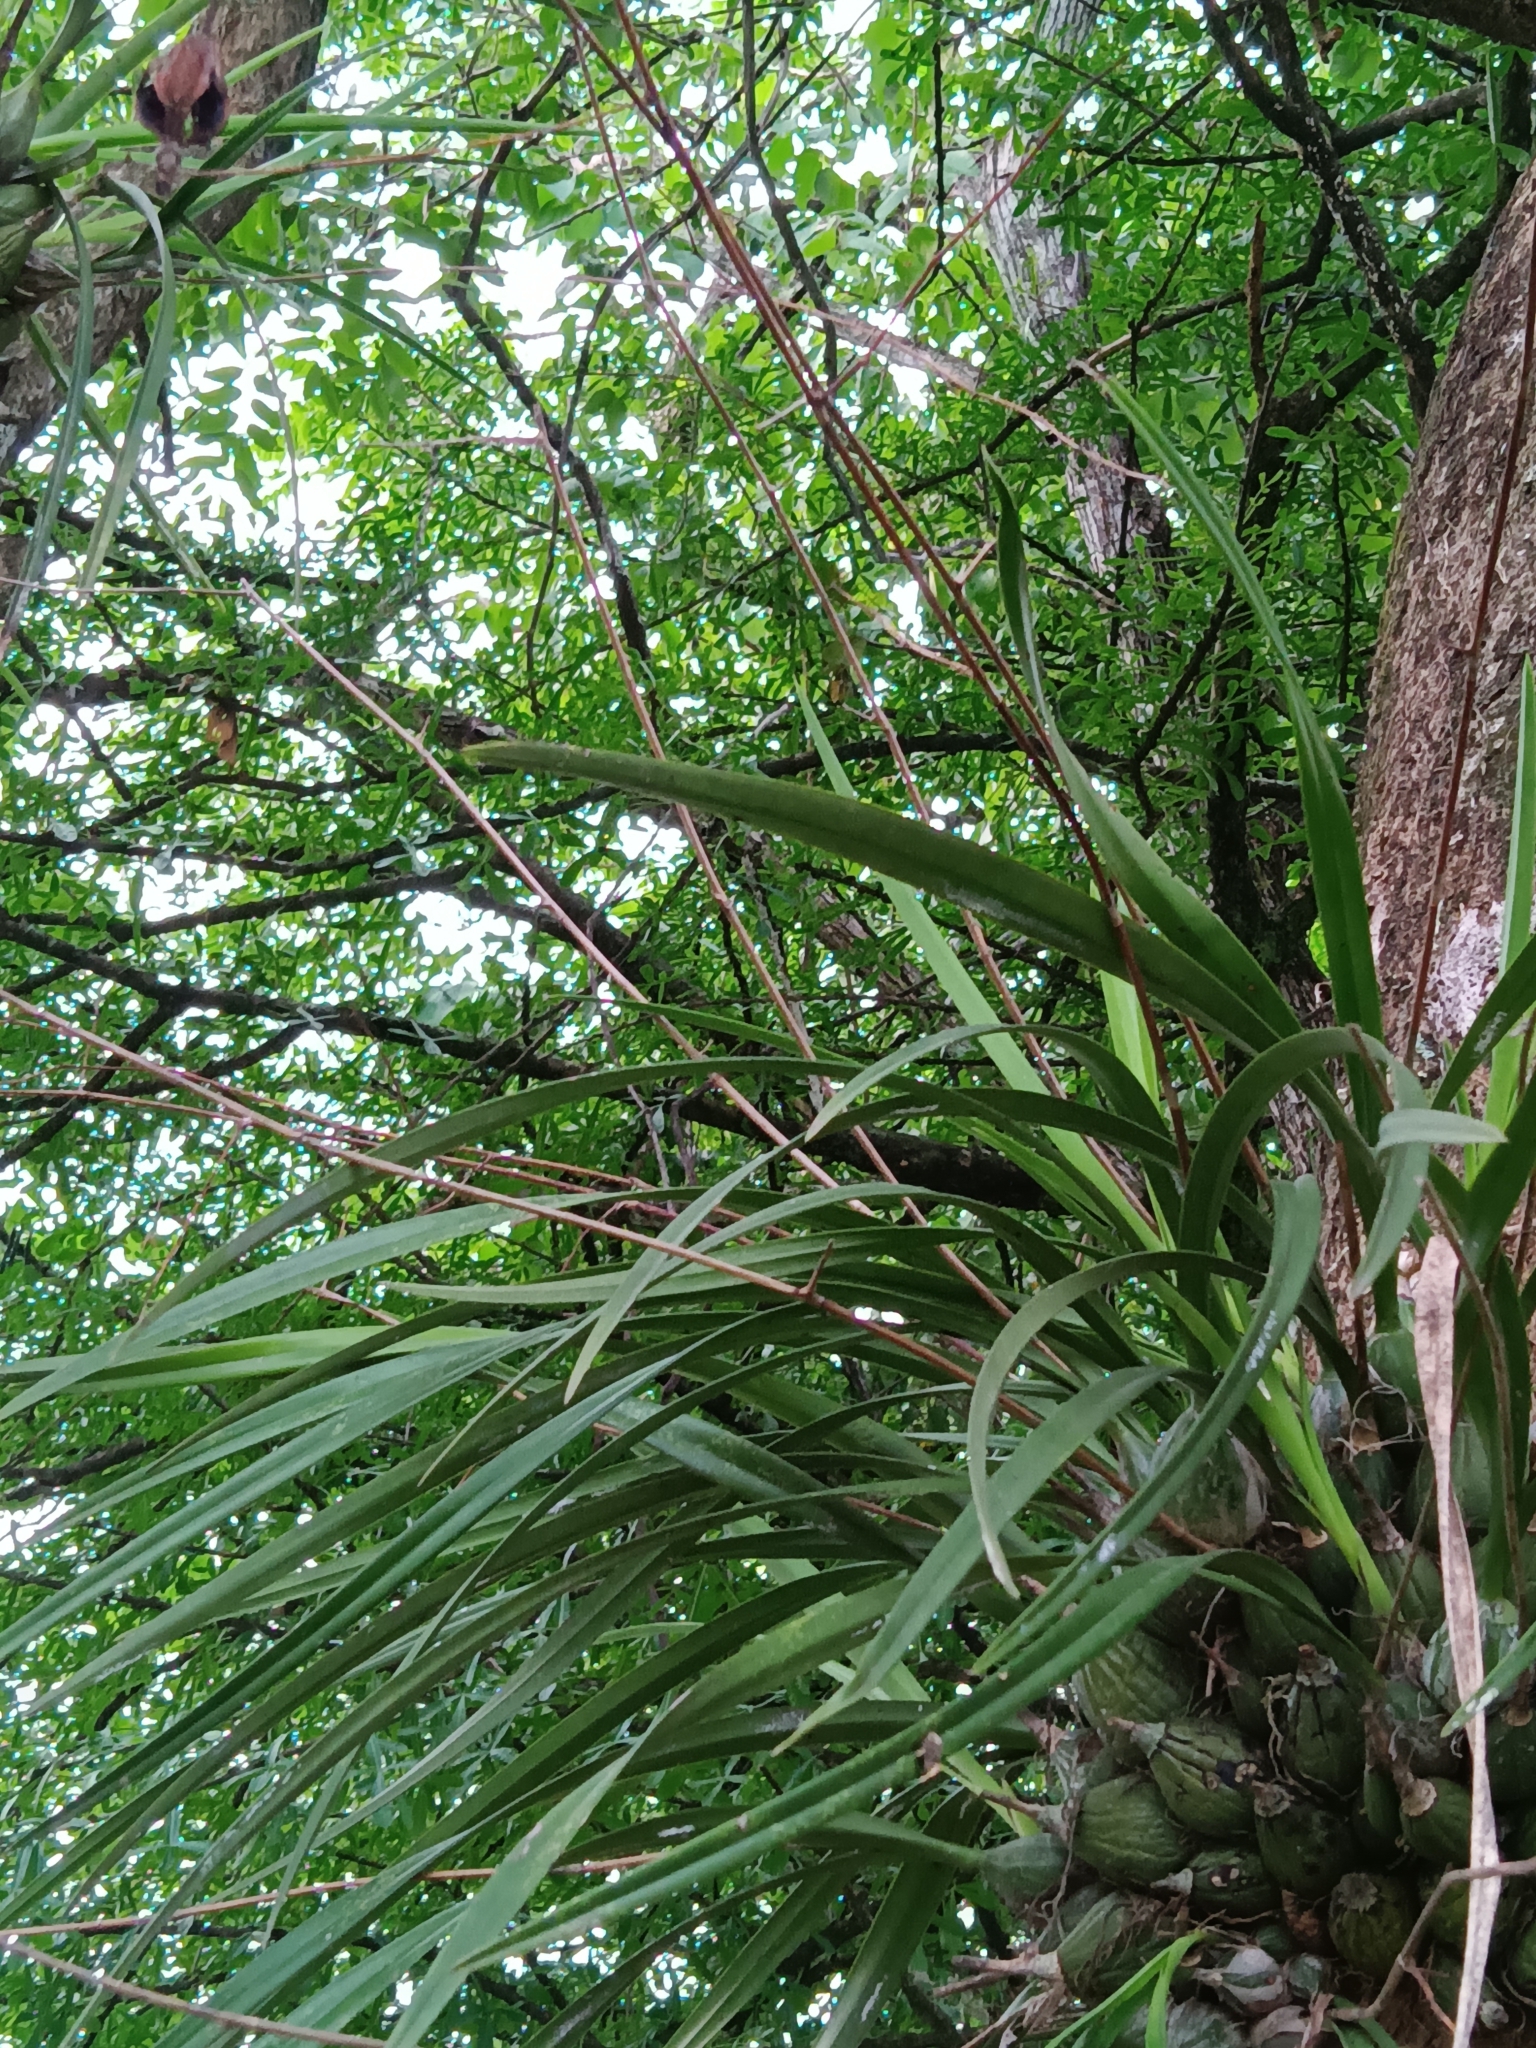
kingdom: Plantae
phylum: Tracheophyta
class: Liliopsida
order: Asparagales
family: Orchidaceae
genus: Encyclia
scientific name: Encyclia papillosa
